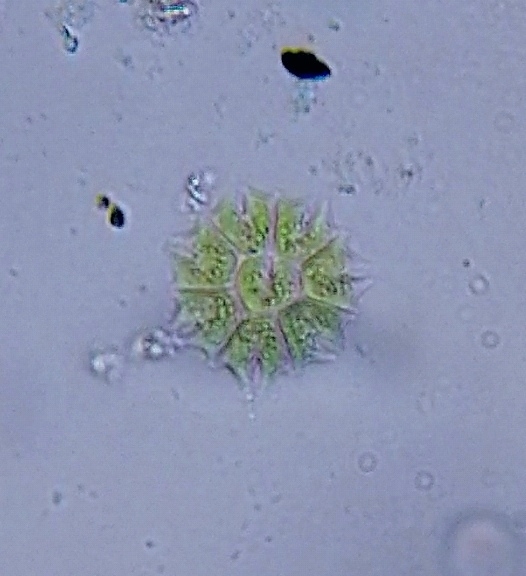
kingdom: Plantae
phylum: Chlorophyta
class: Chlorophyceae
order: Sphaeropleales
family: Hydrodictyaceae
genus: Stauridium
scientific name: Stauridium tetras
